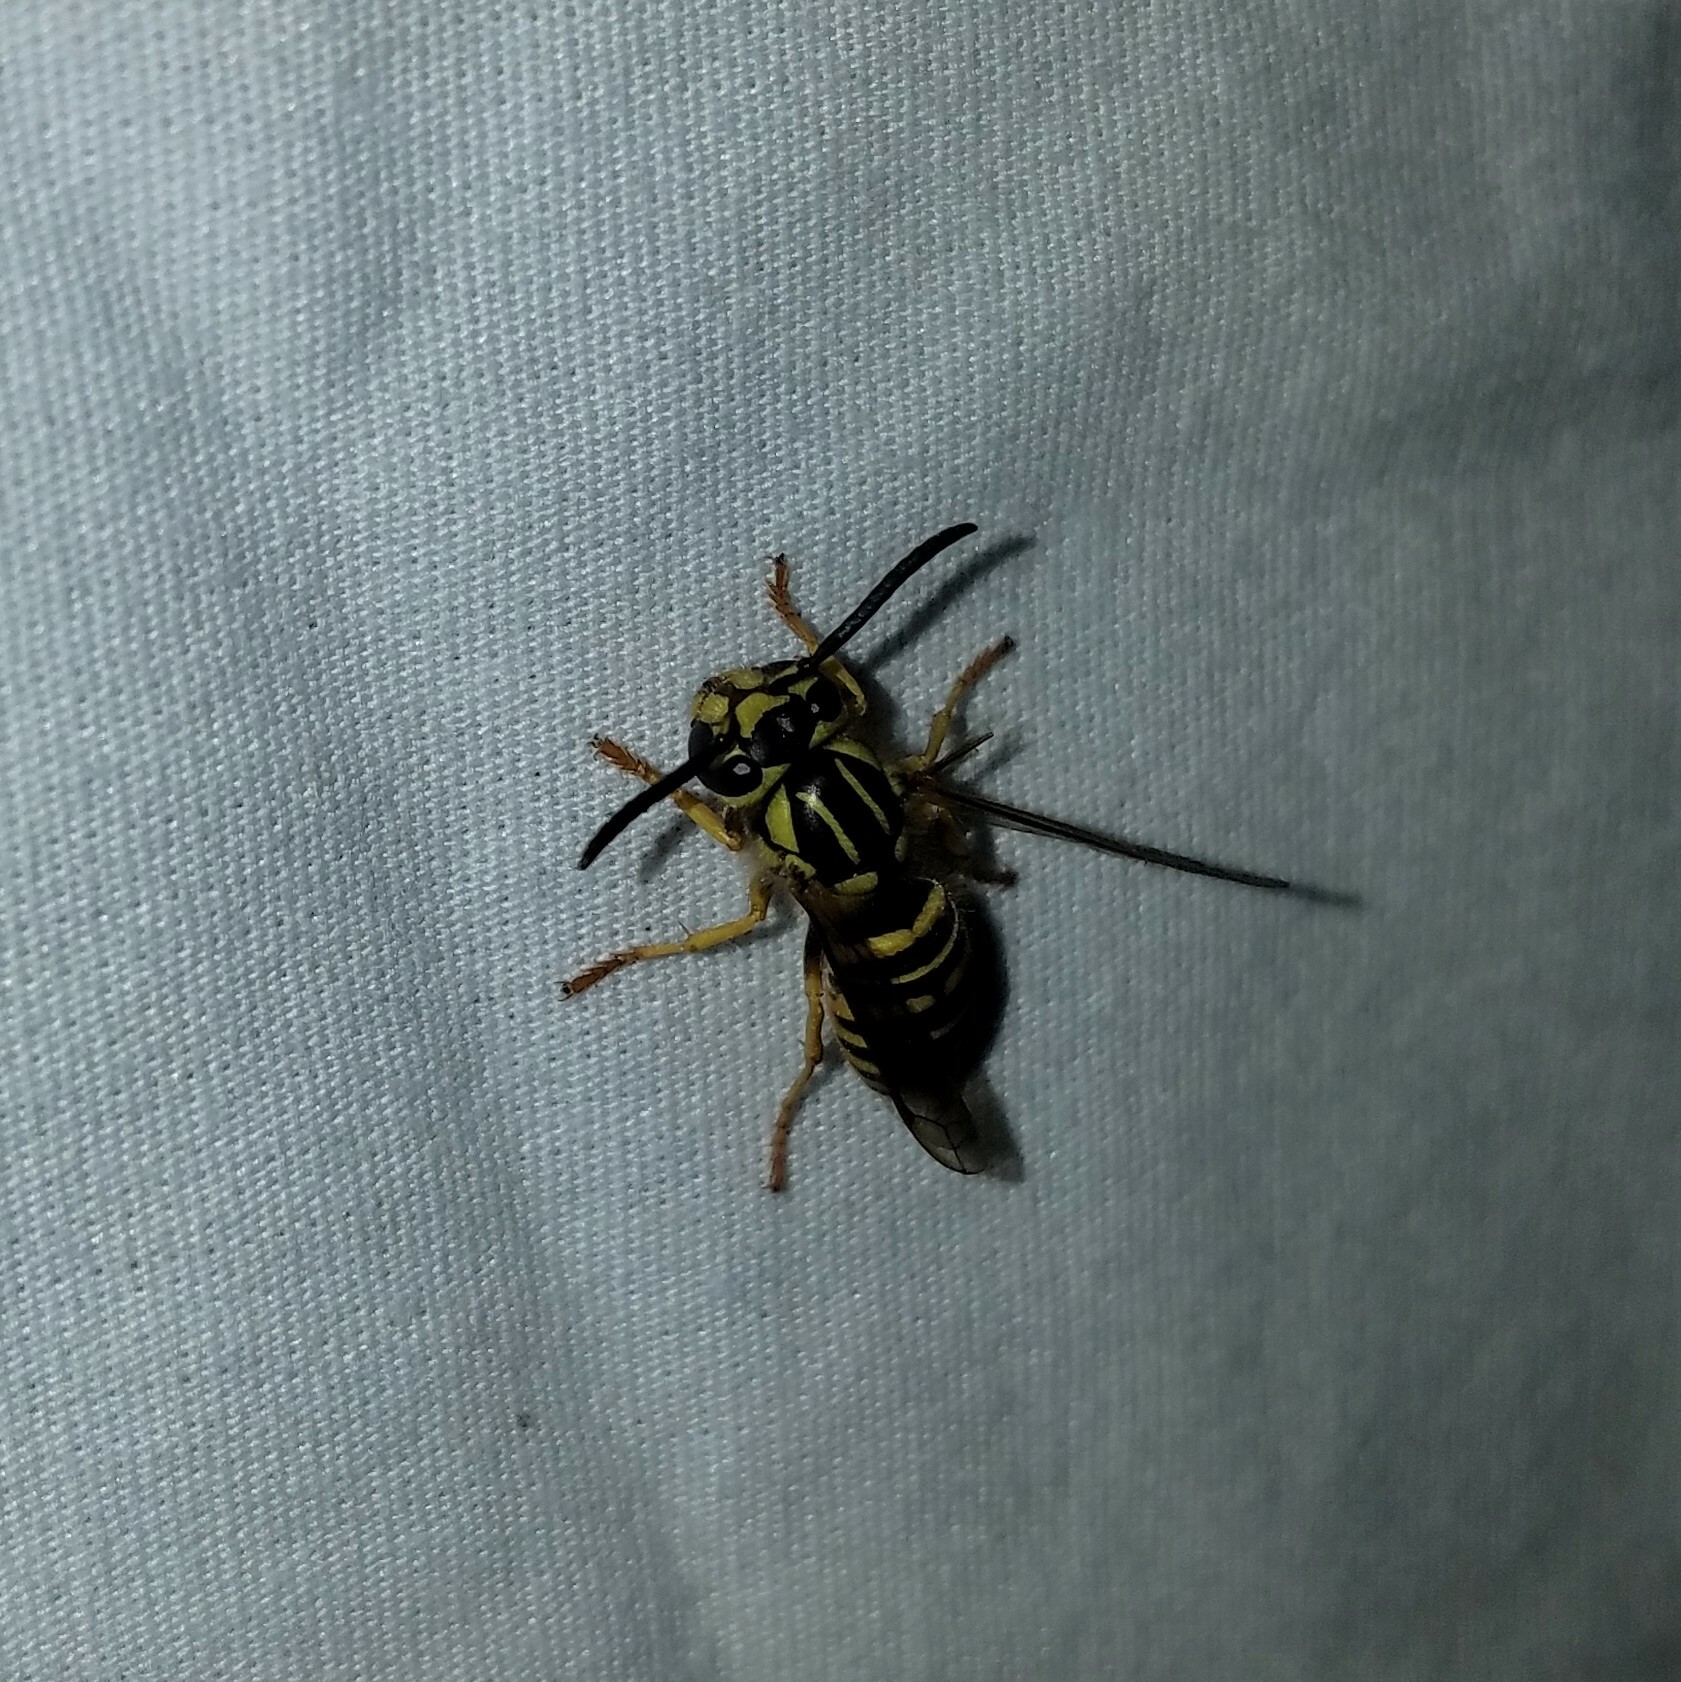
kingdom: Animalia
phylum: Arthropoda
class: Insecta
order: Hymenoptera
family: Vespidae
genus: Vespula
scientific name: Vespula squamosa
